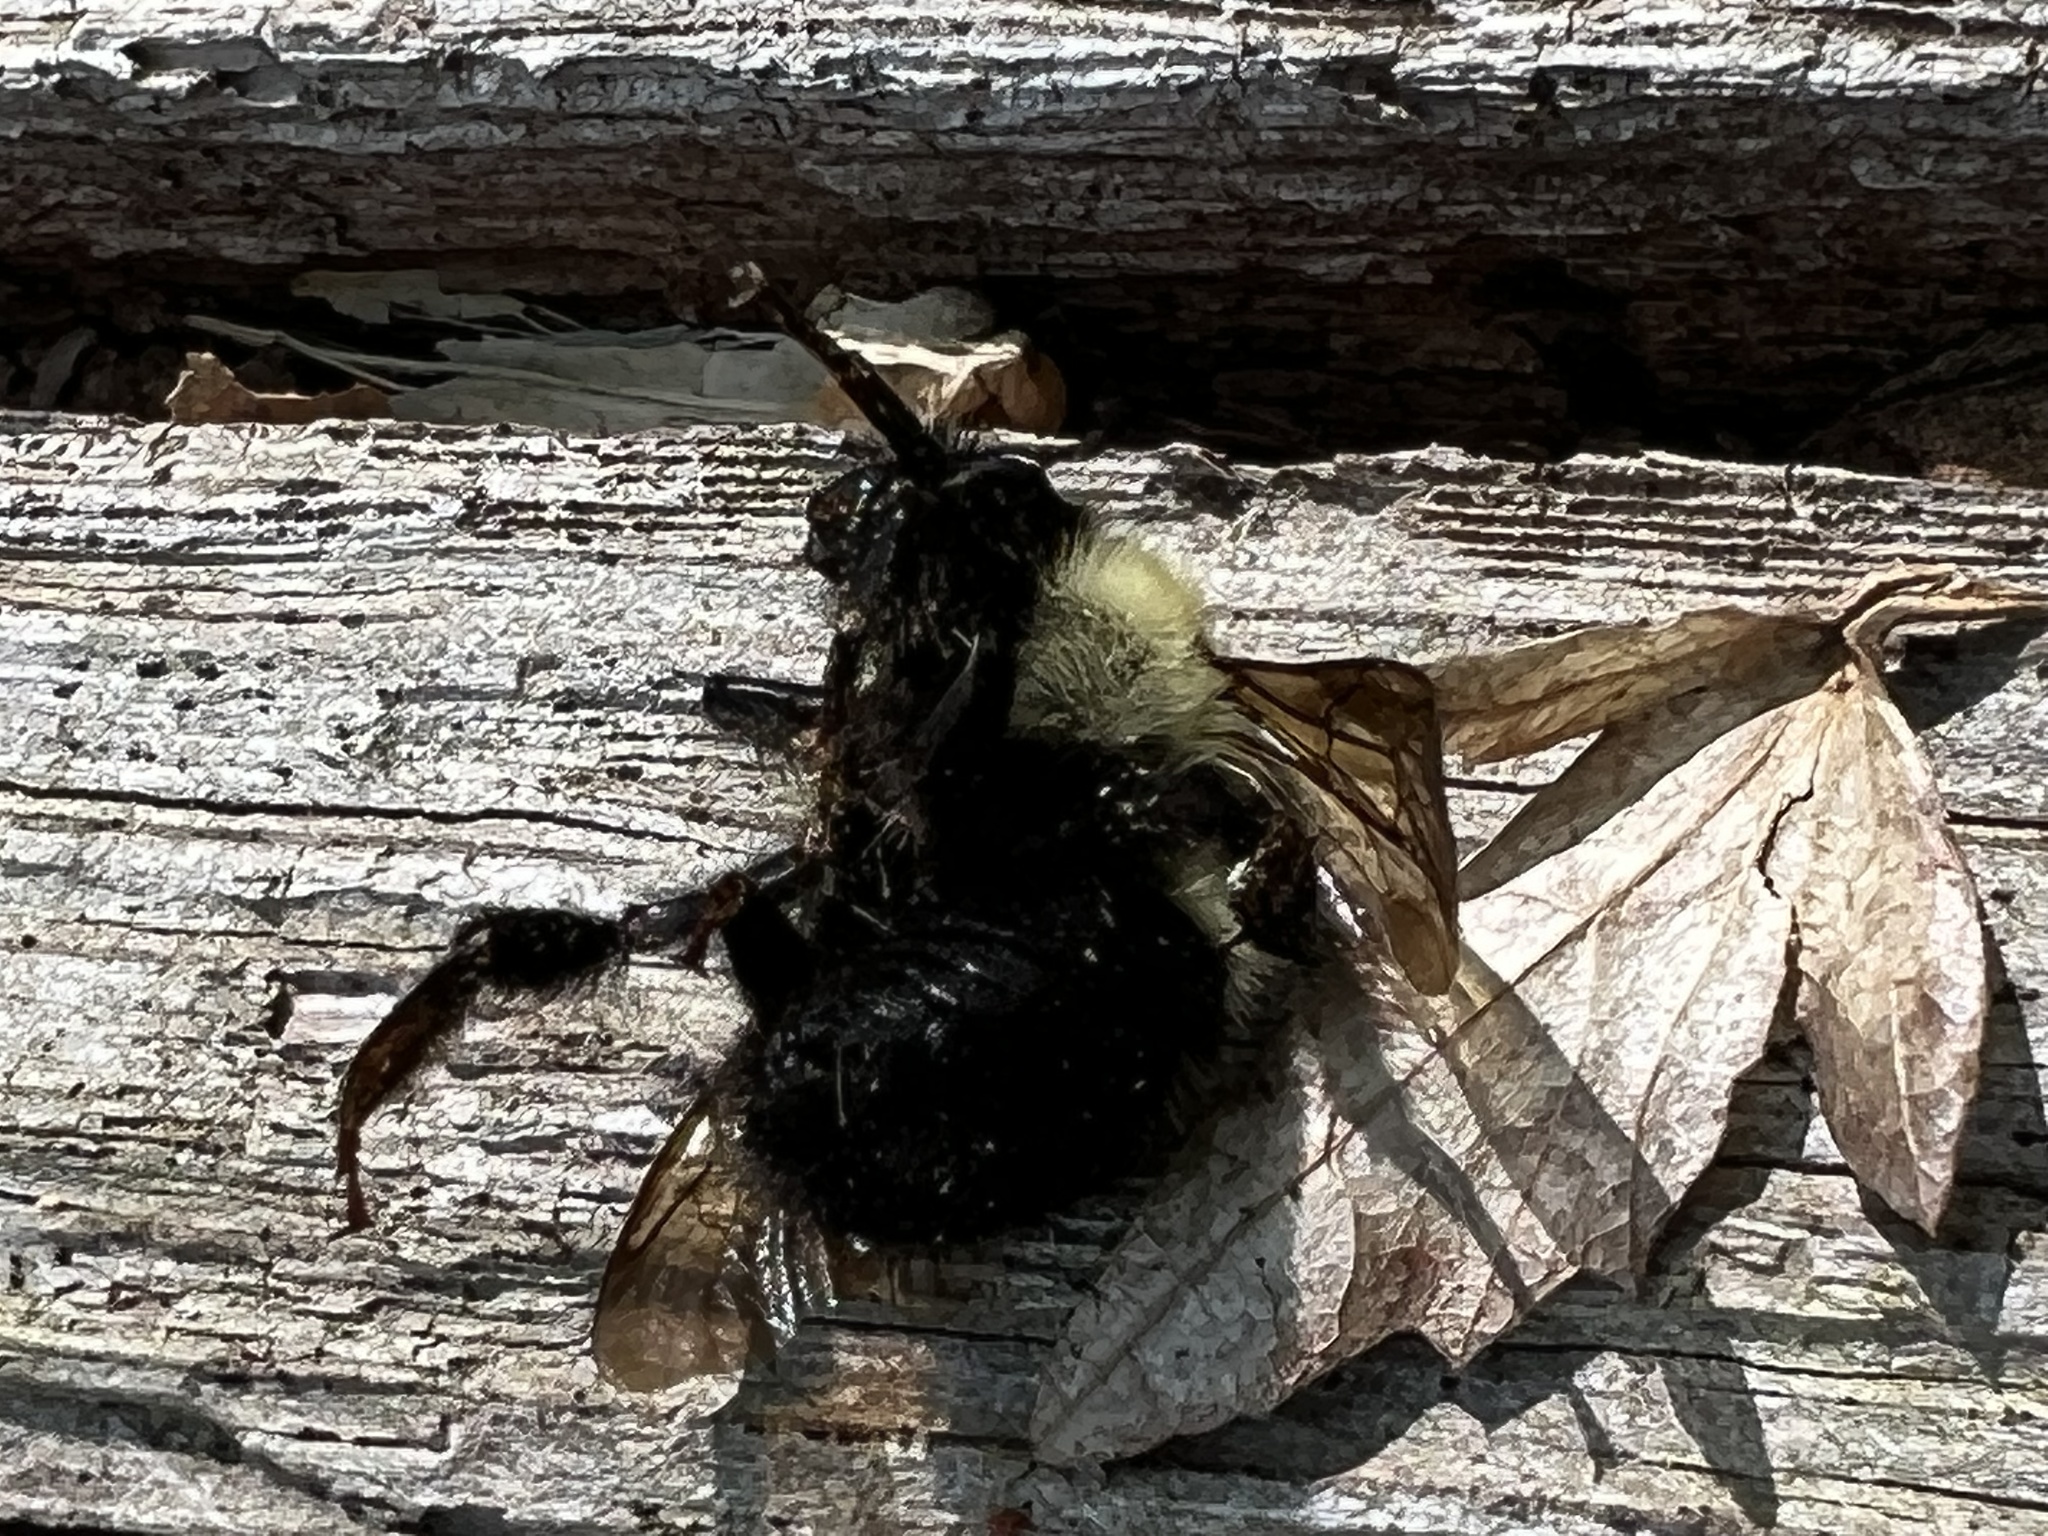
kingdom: Animalia
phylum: Arthropoda
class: Insecta
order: Hymenoptera
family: Apidae
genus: Bombus
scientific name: Bombus bimaculatus
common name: Two-spotted bumble bee
